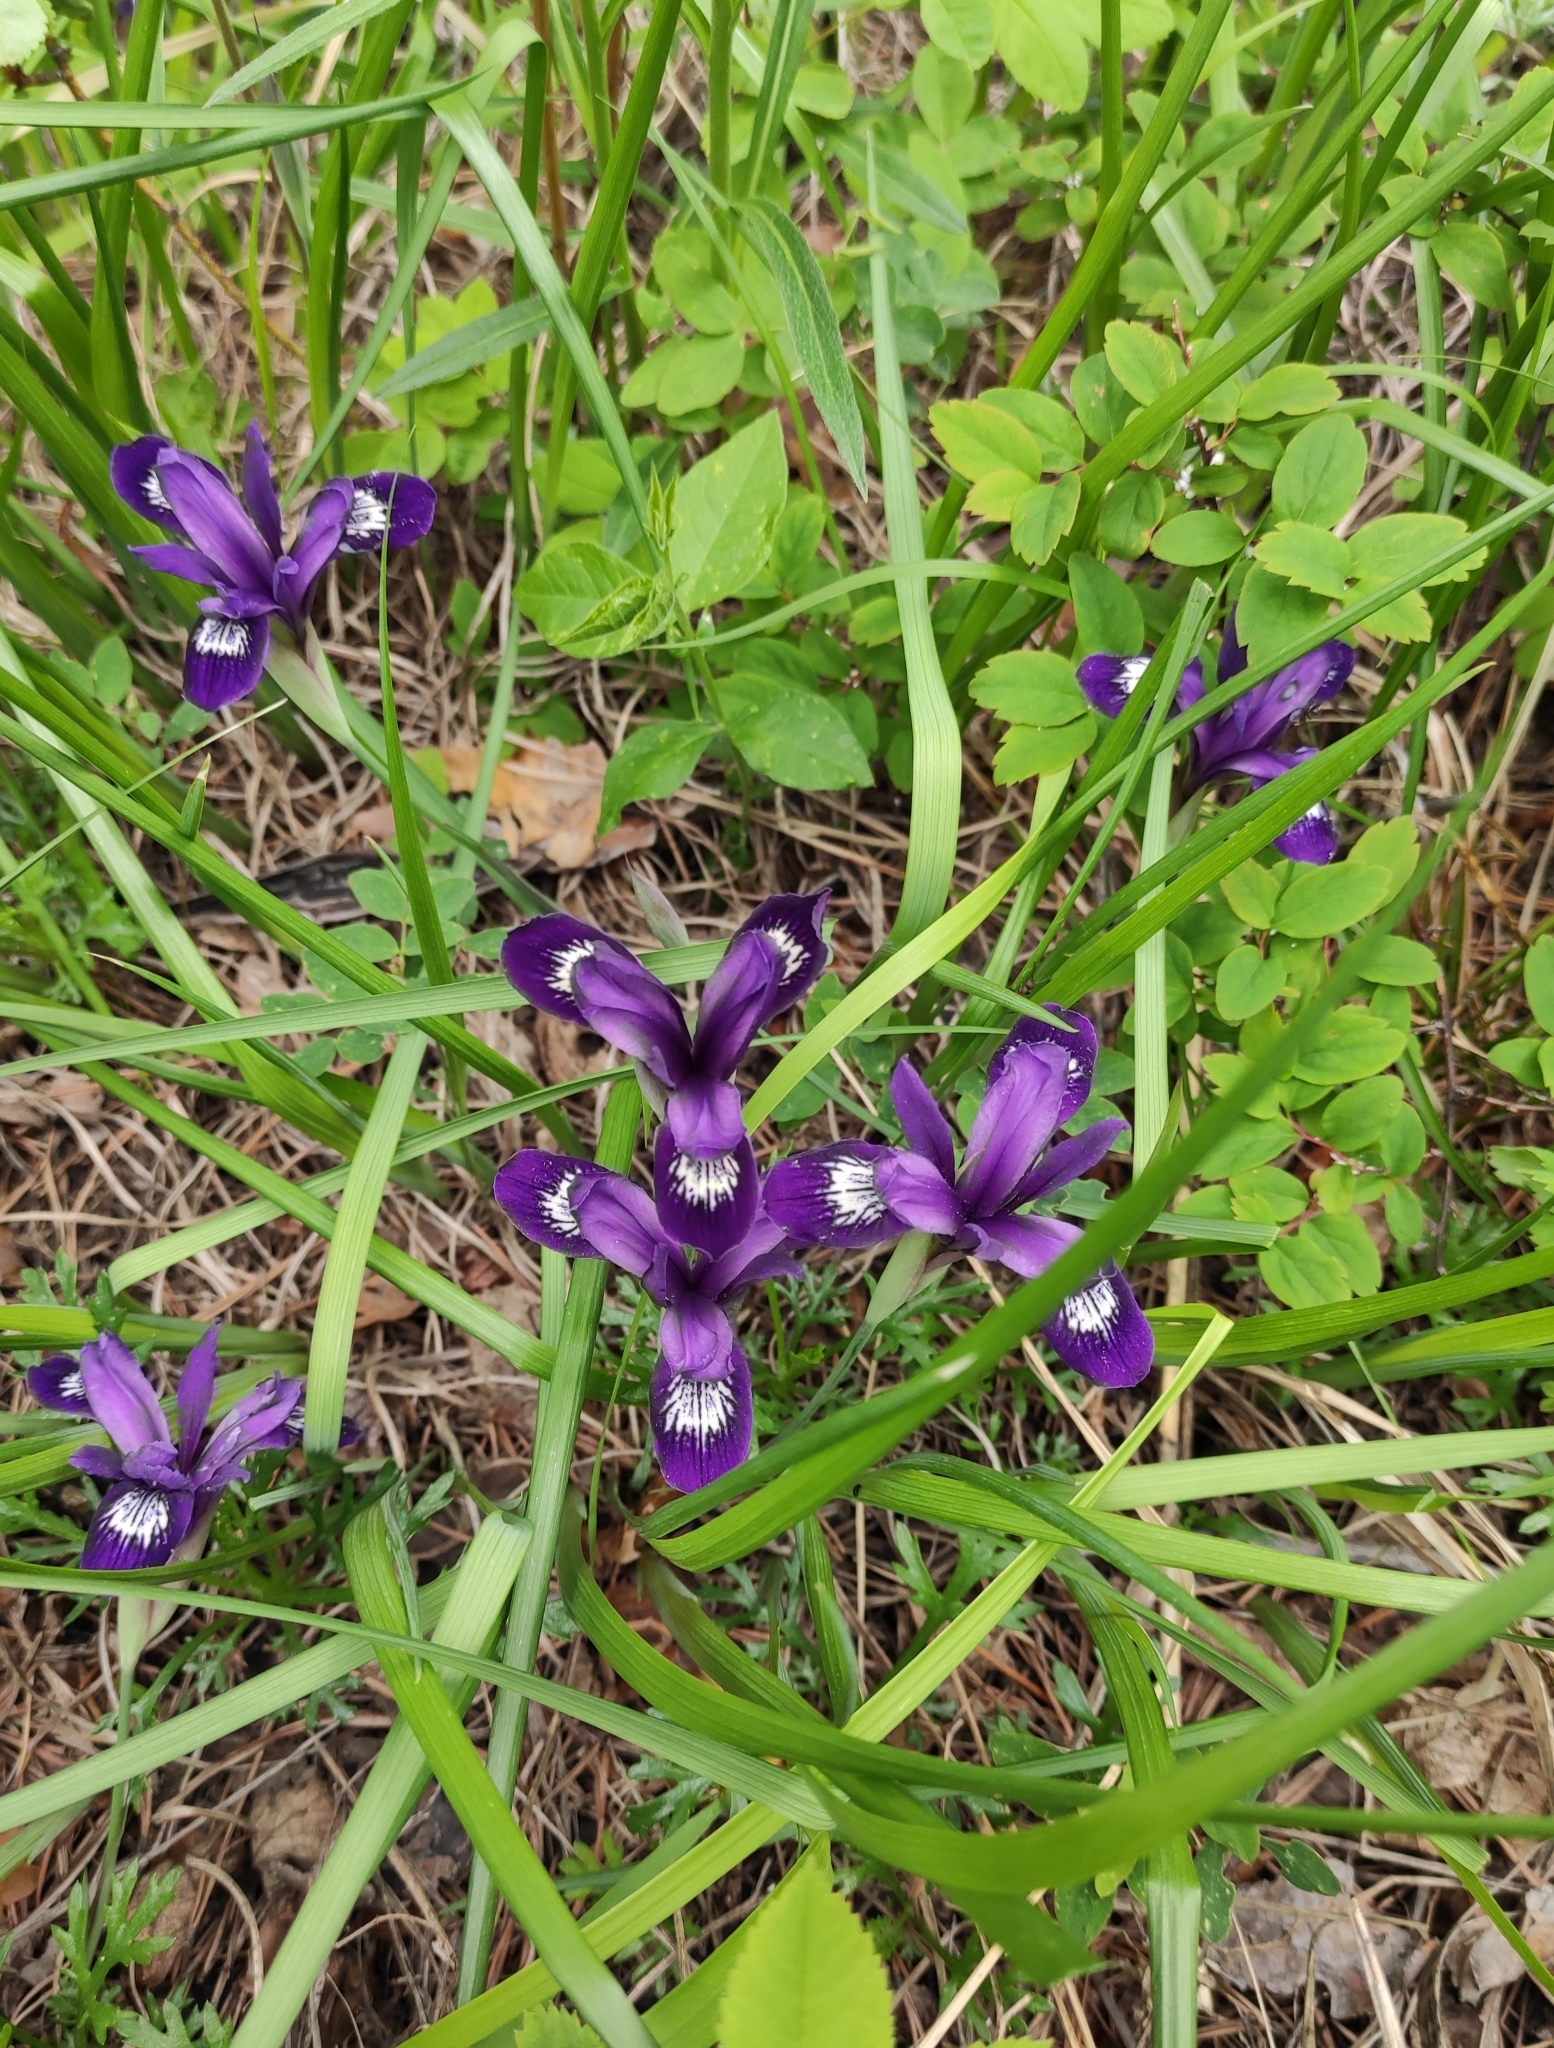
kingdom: Plantae
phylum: Tracheophyta
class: Liliopsida
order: Asparagales
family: Iridaceae
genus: Iris
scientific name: Iris ruthenica
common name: Purple-bract iris
